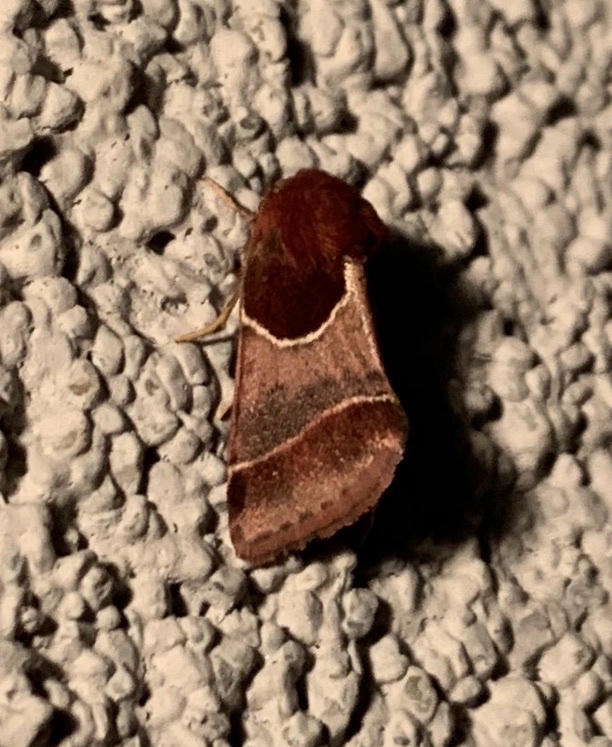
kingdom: Animalia
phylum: Arthropoda
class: Insecta
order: Lepidoptera
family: Noctuidae
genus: Schinia
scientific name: Schinia arcigera
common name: Arcigera flower moth
